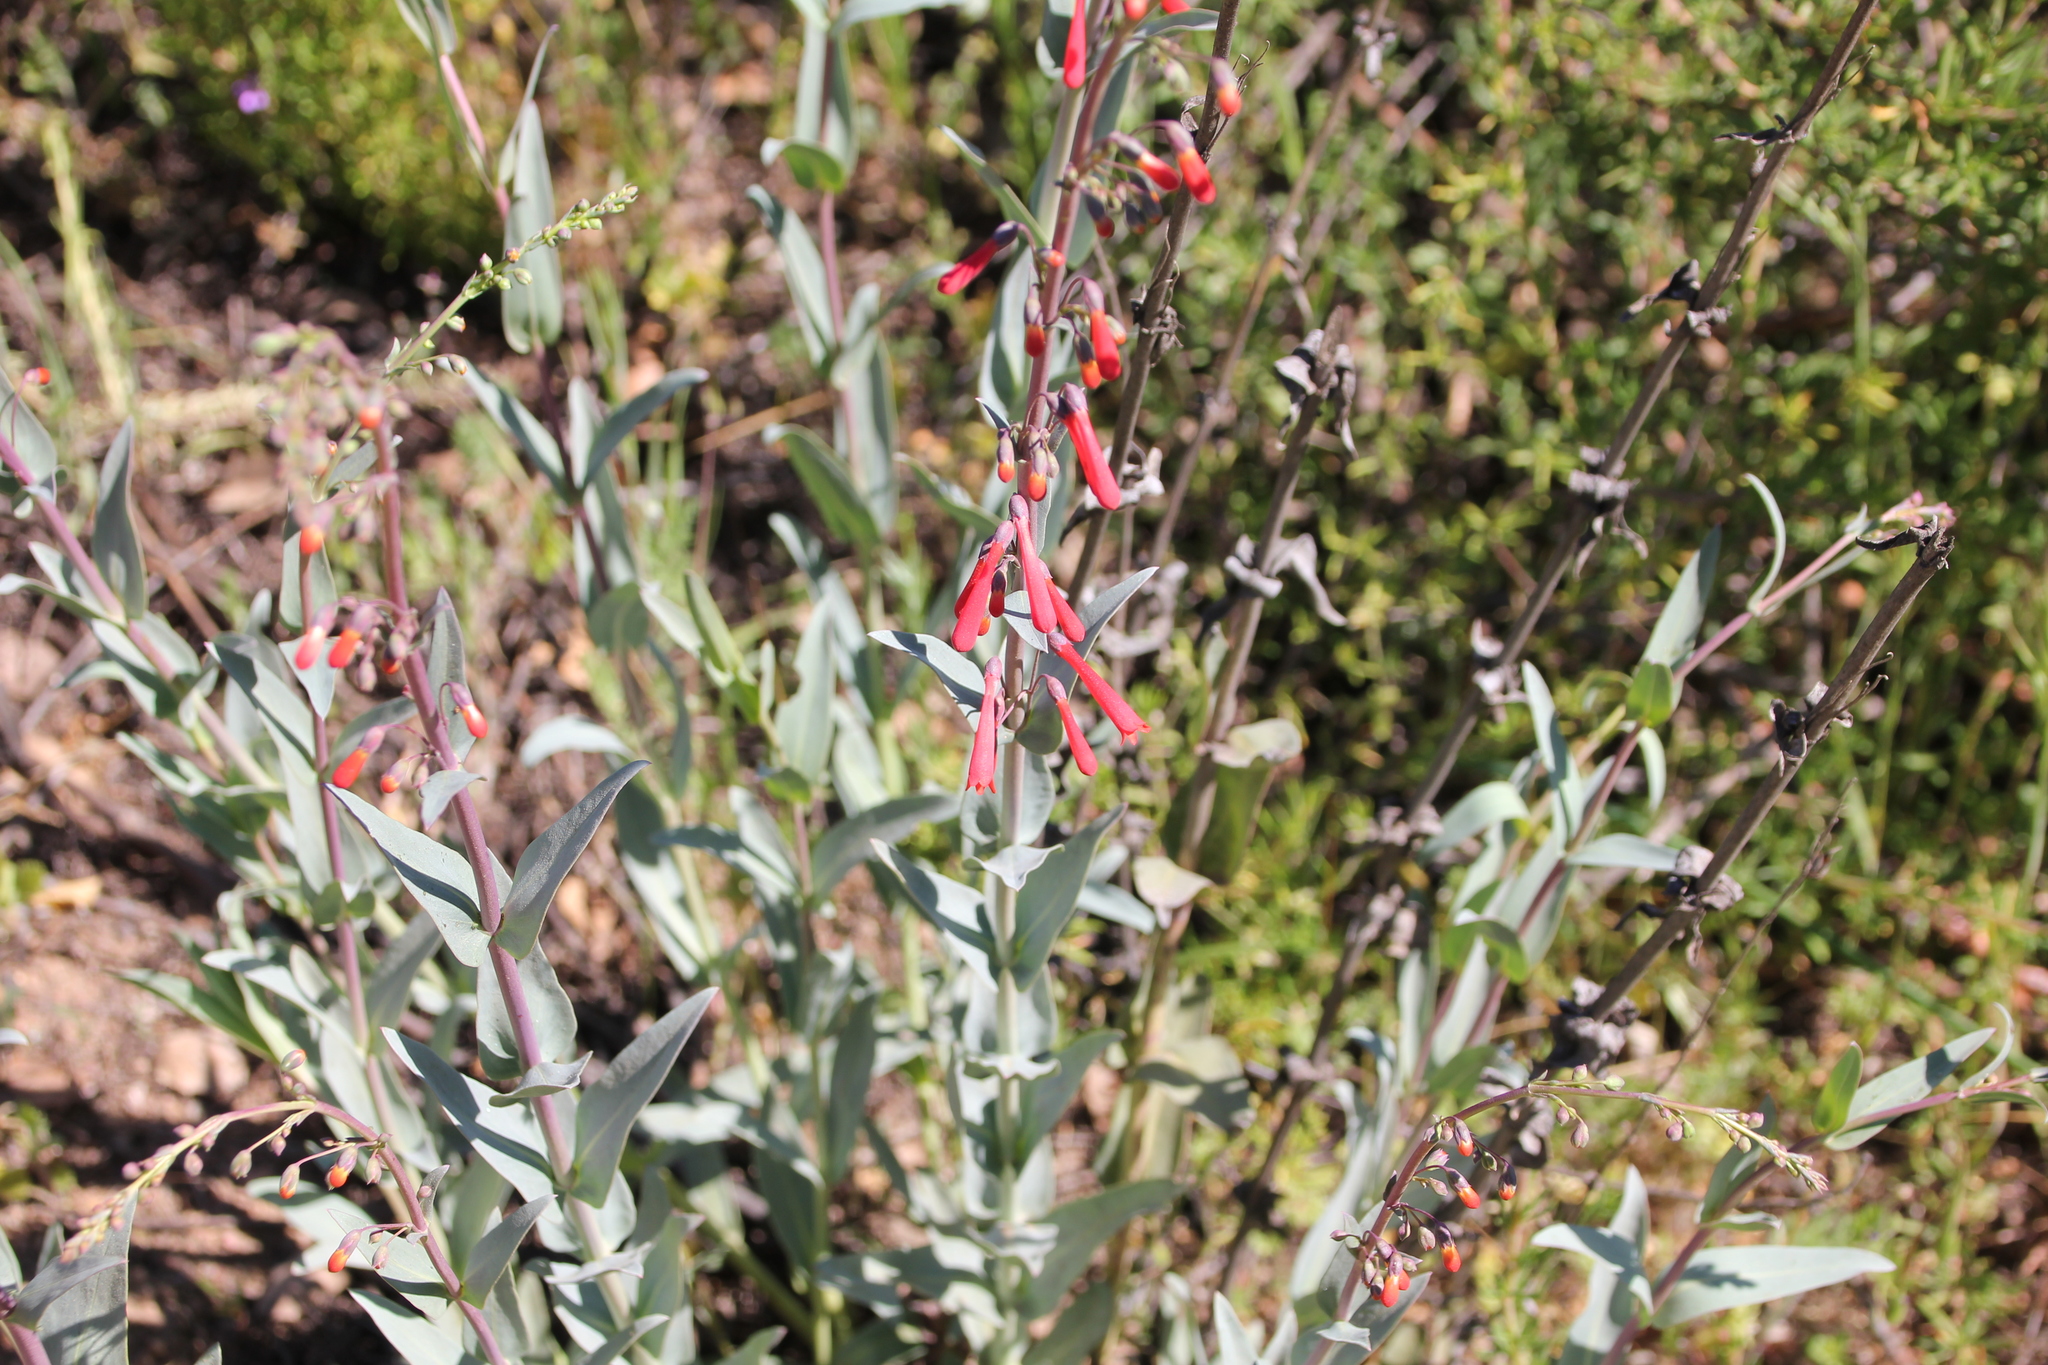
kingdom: Plantae
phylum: Tracheophyta
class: Magnoliopsida
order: Lamiales
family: Plantaginaceae
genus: Penstemon
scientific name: Penstemon centranthifolius
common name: Scarlet bugler
